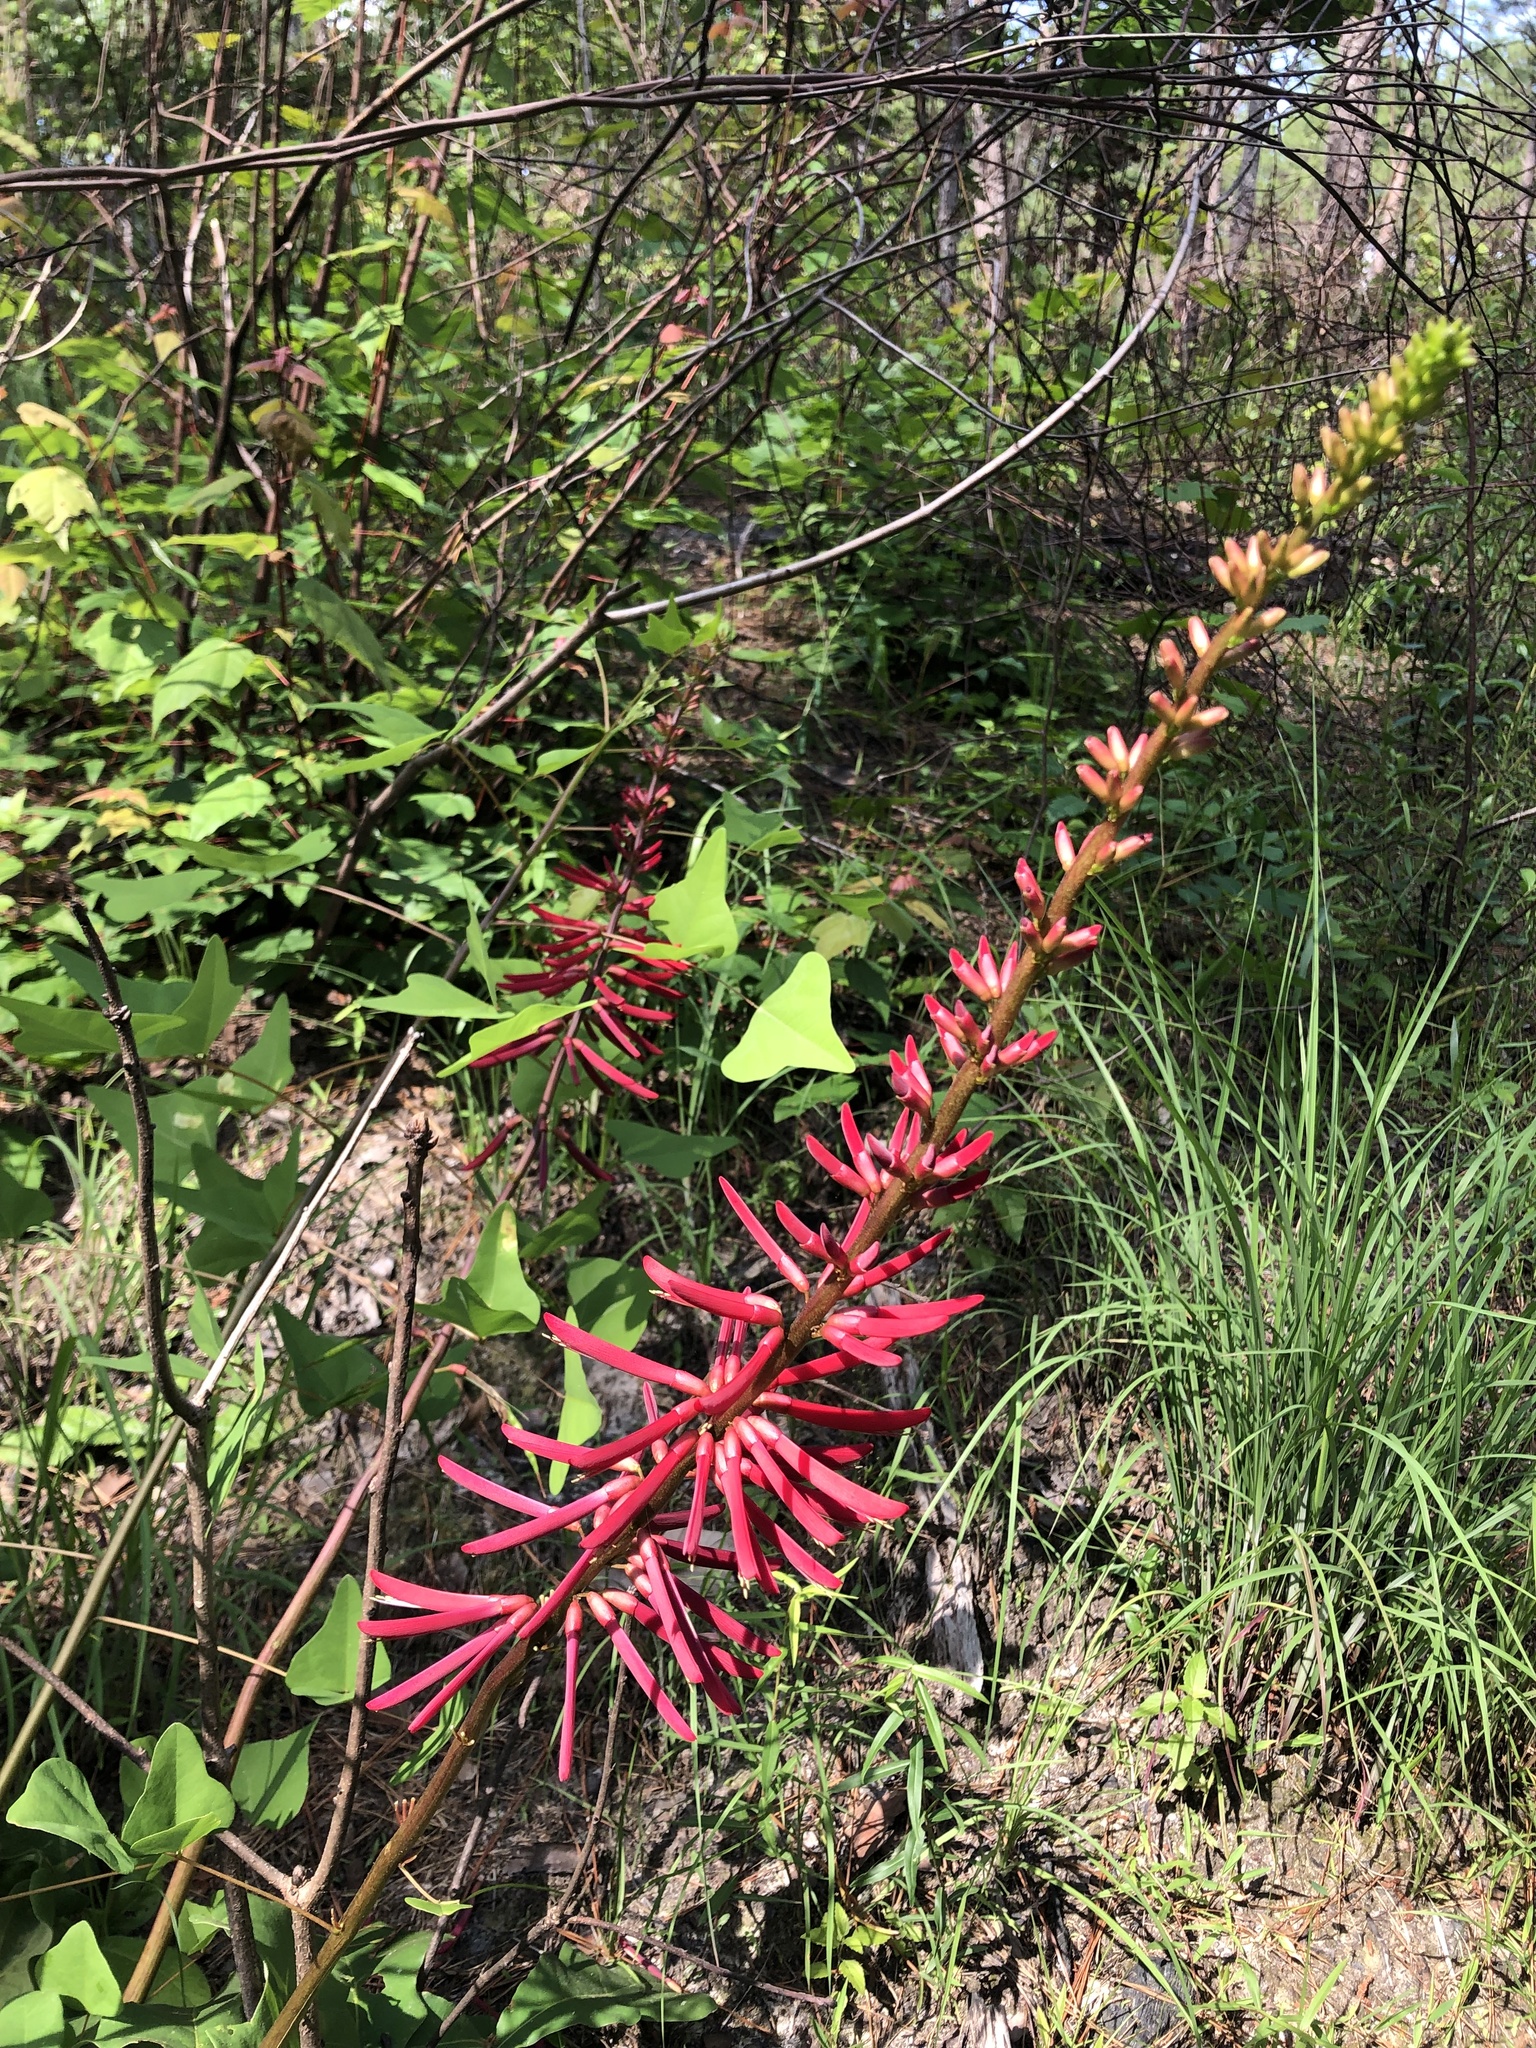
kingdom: Plantae
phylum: Tracheophyta
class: Magnoliopsida
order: Fabales
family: Fabaceae
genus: Erythrina
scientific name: Erythrina herbacea
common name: Coral-bean
